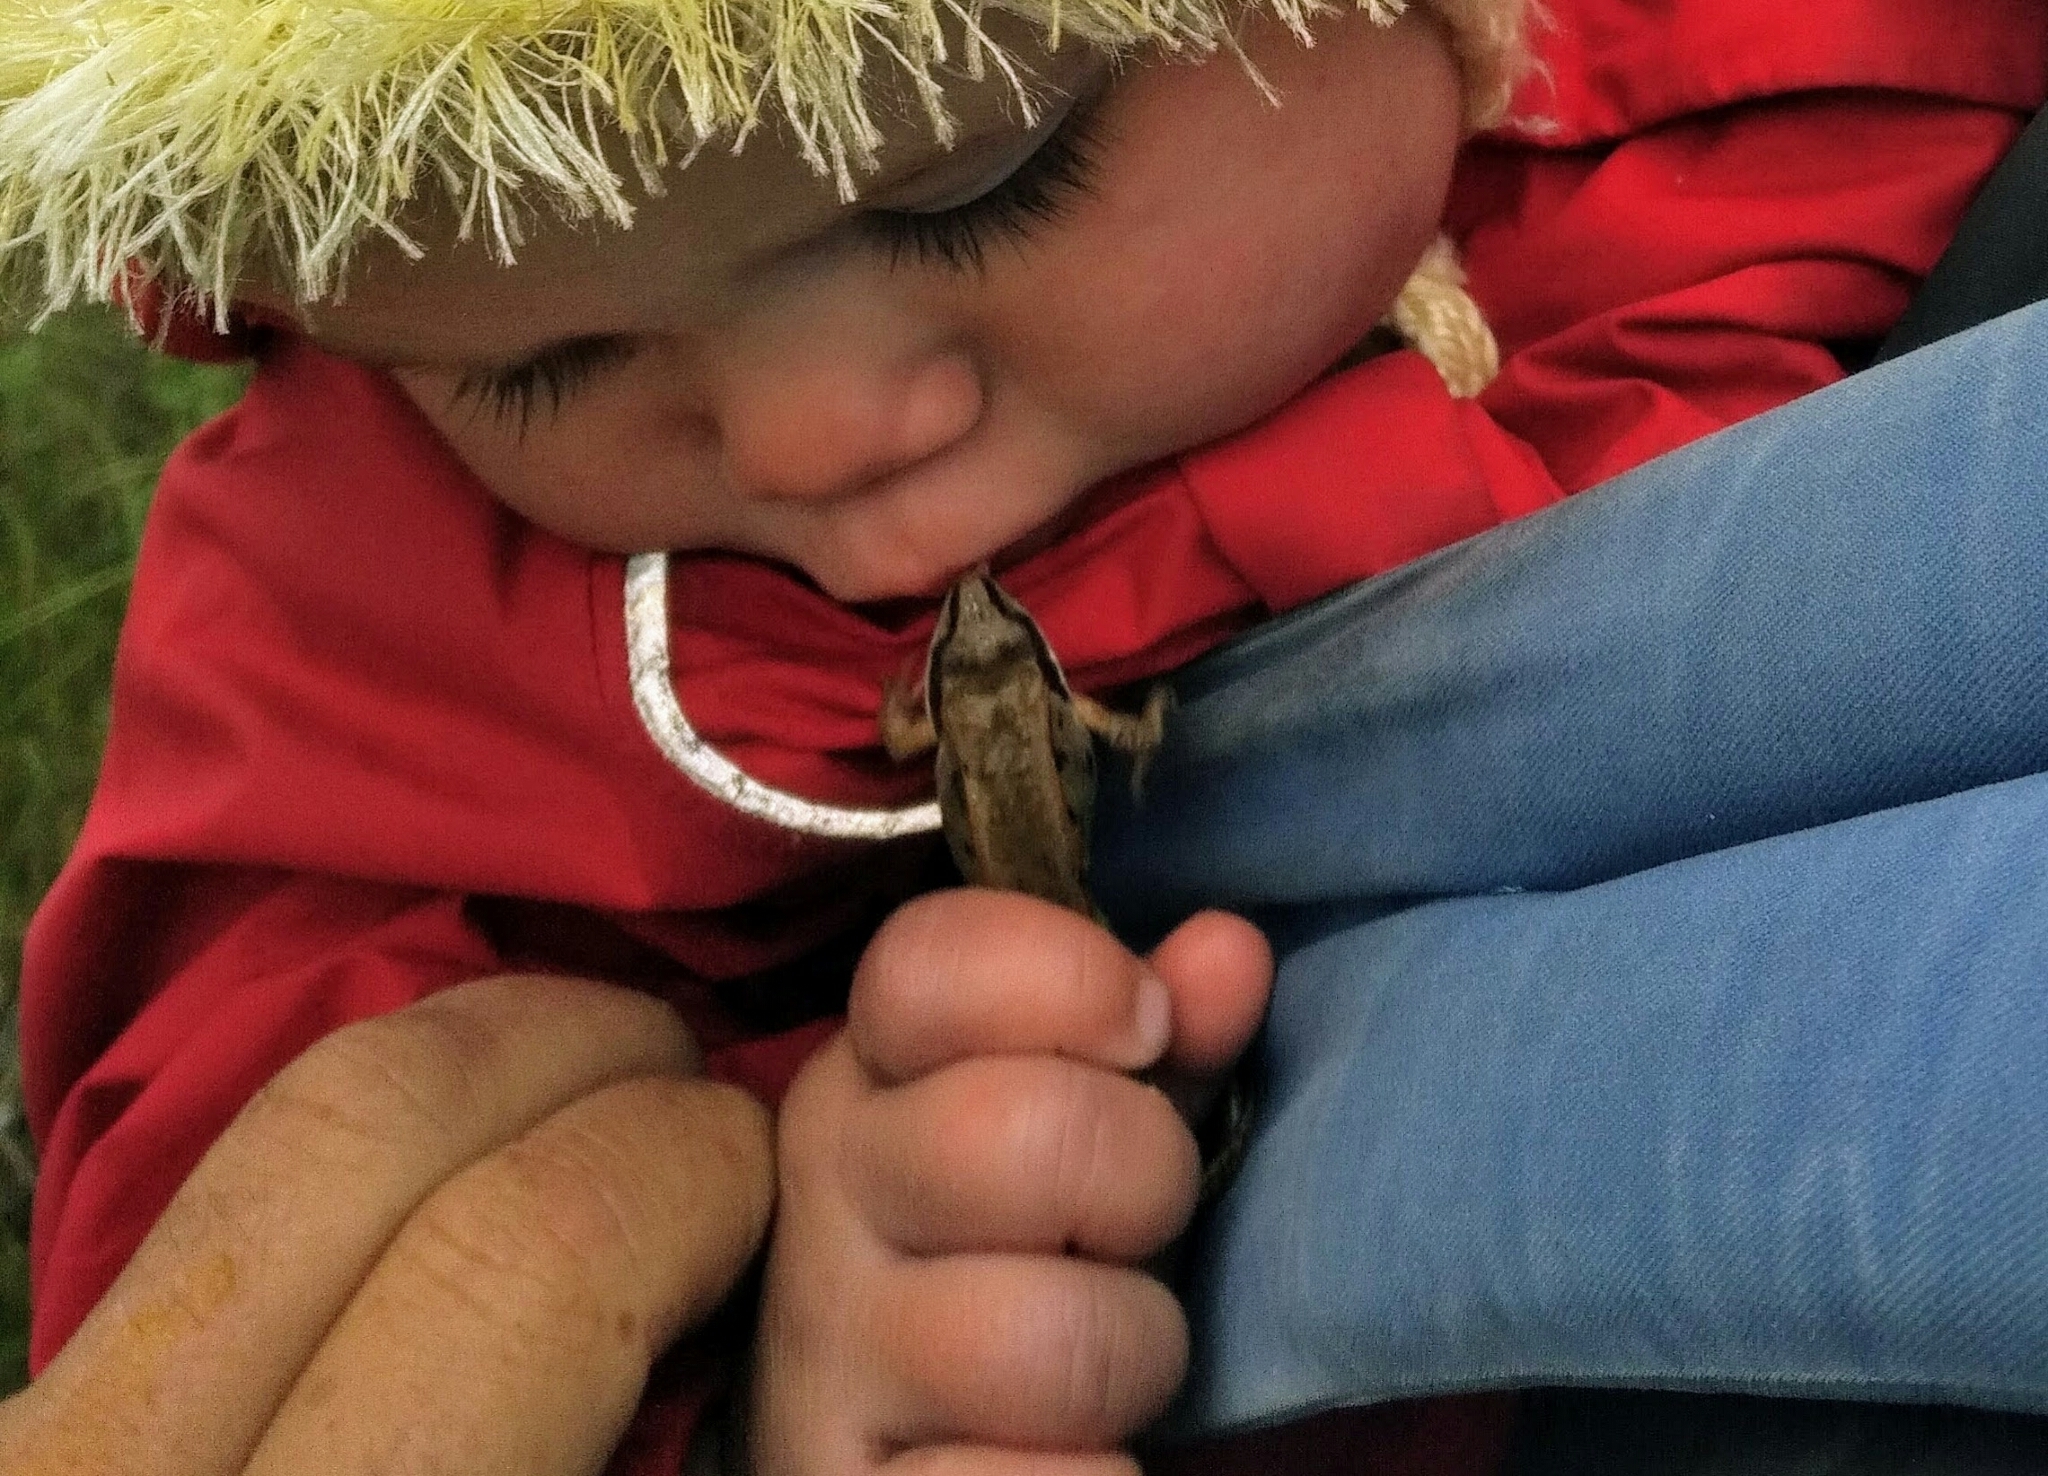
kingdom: Animalia
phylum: Chordata
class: Amphibia
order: Anura
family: Ranidae
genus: Lithobates
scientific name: Lithobates sylvaticus
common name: Wood frog
